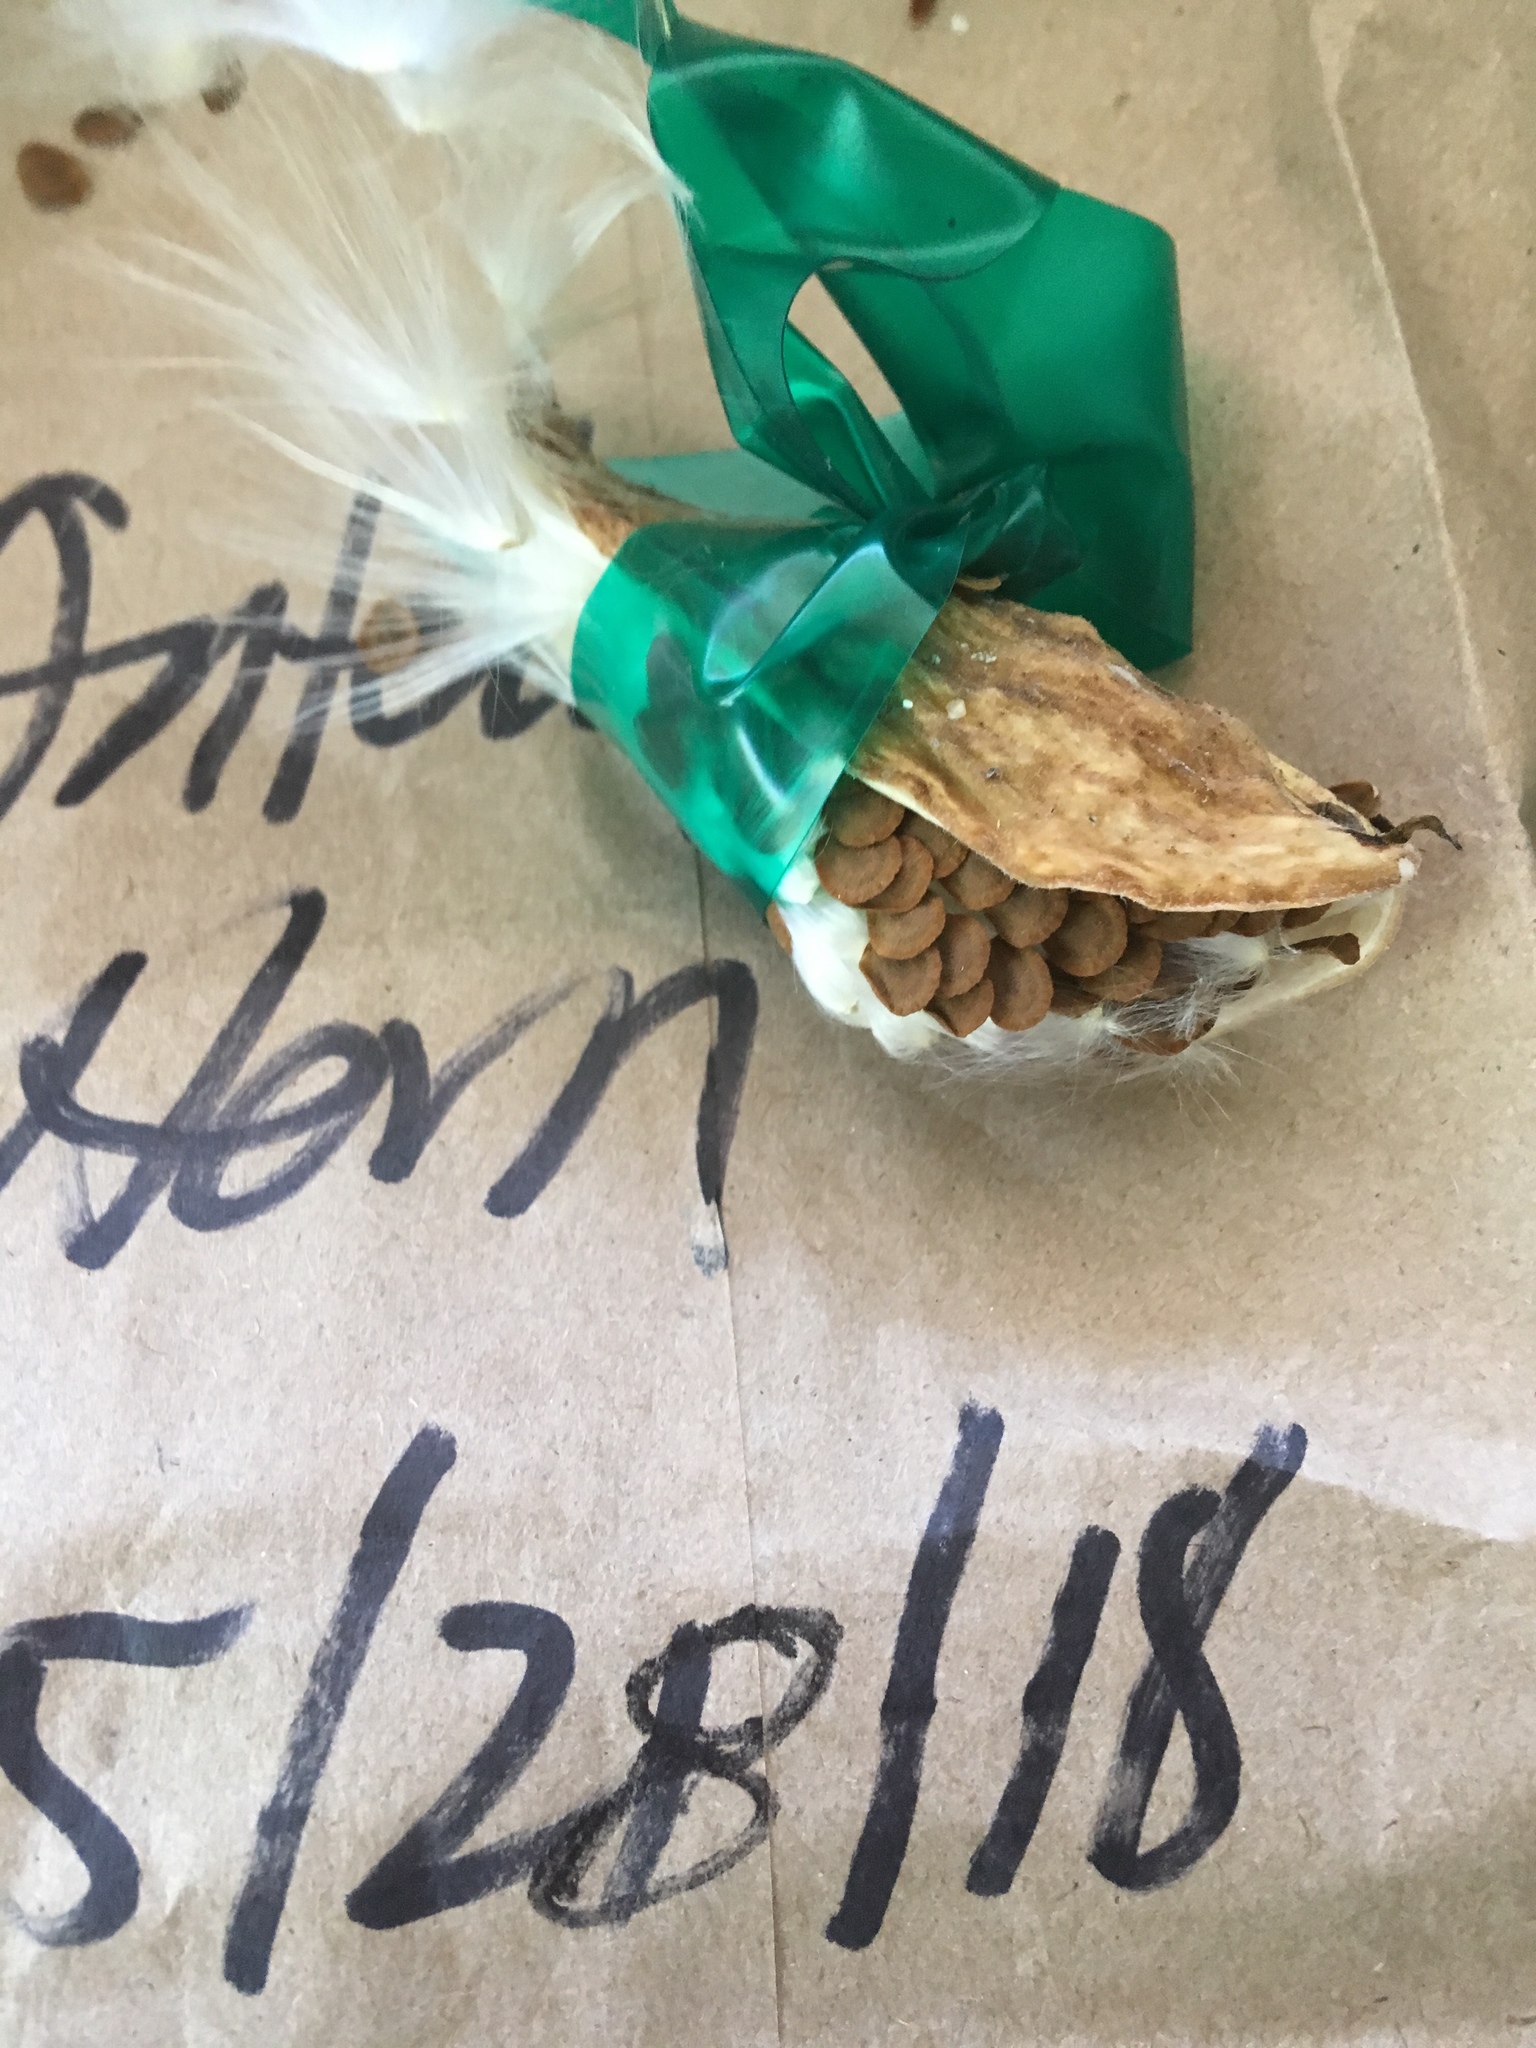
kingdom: Plantae
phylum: Tracheophyta
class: Magnoliopsida
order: Gentianales
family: Apocynaceae
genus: Asclepias
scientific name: Asclepias asperula
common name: Antelope horns
